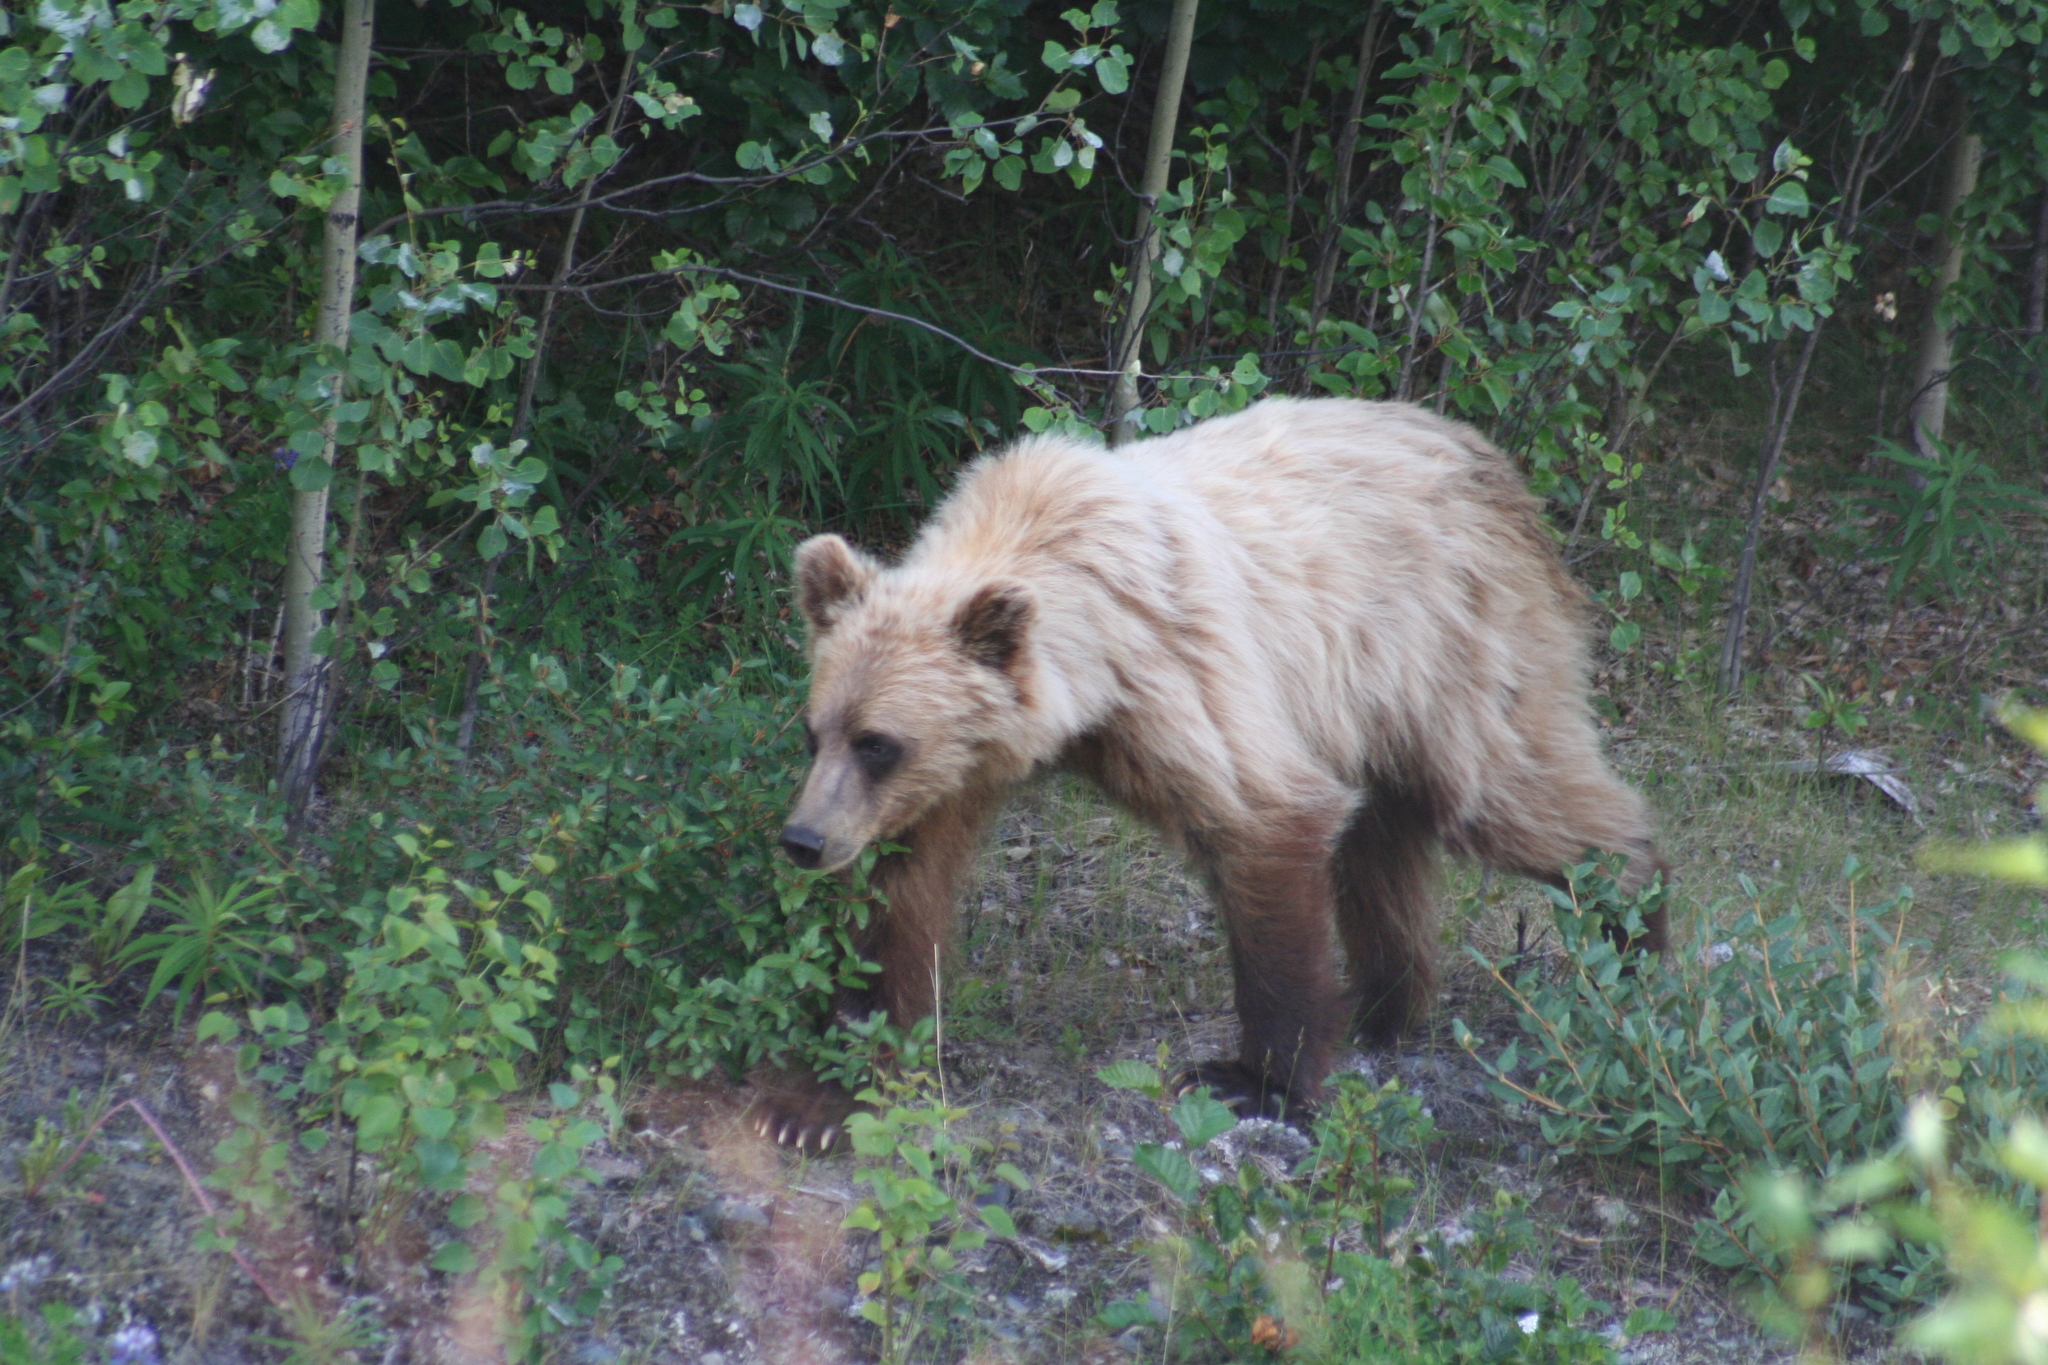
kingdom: Animalia
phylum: Chordata
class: Mammalia
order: Carnivora
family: Ursidae
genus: Ursus
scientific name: Ursus arctos
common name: Brown bear
